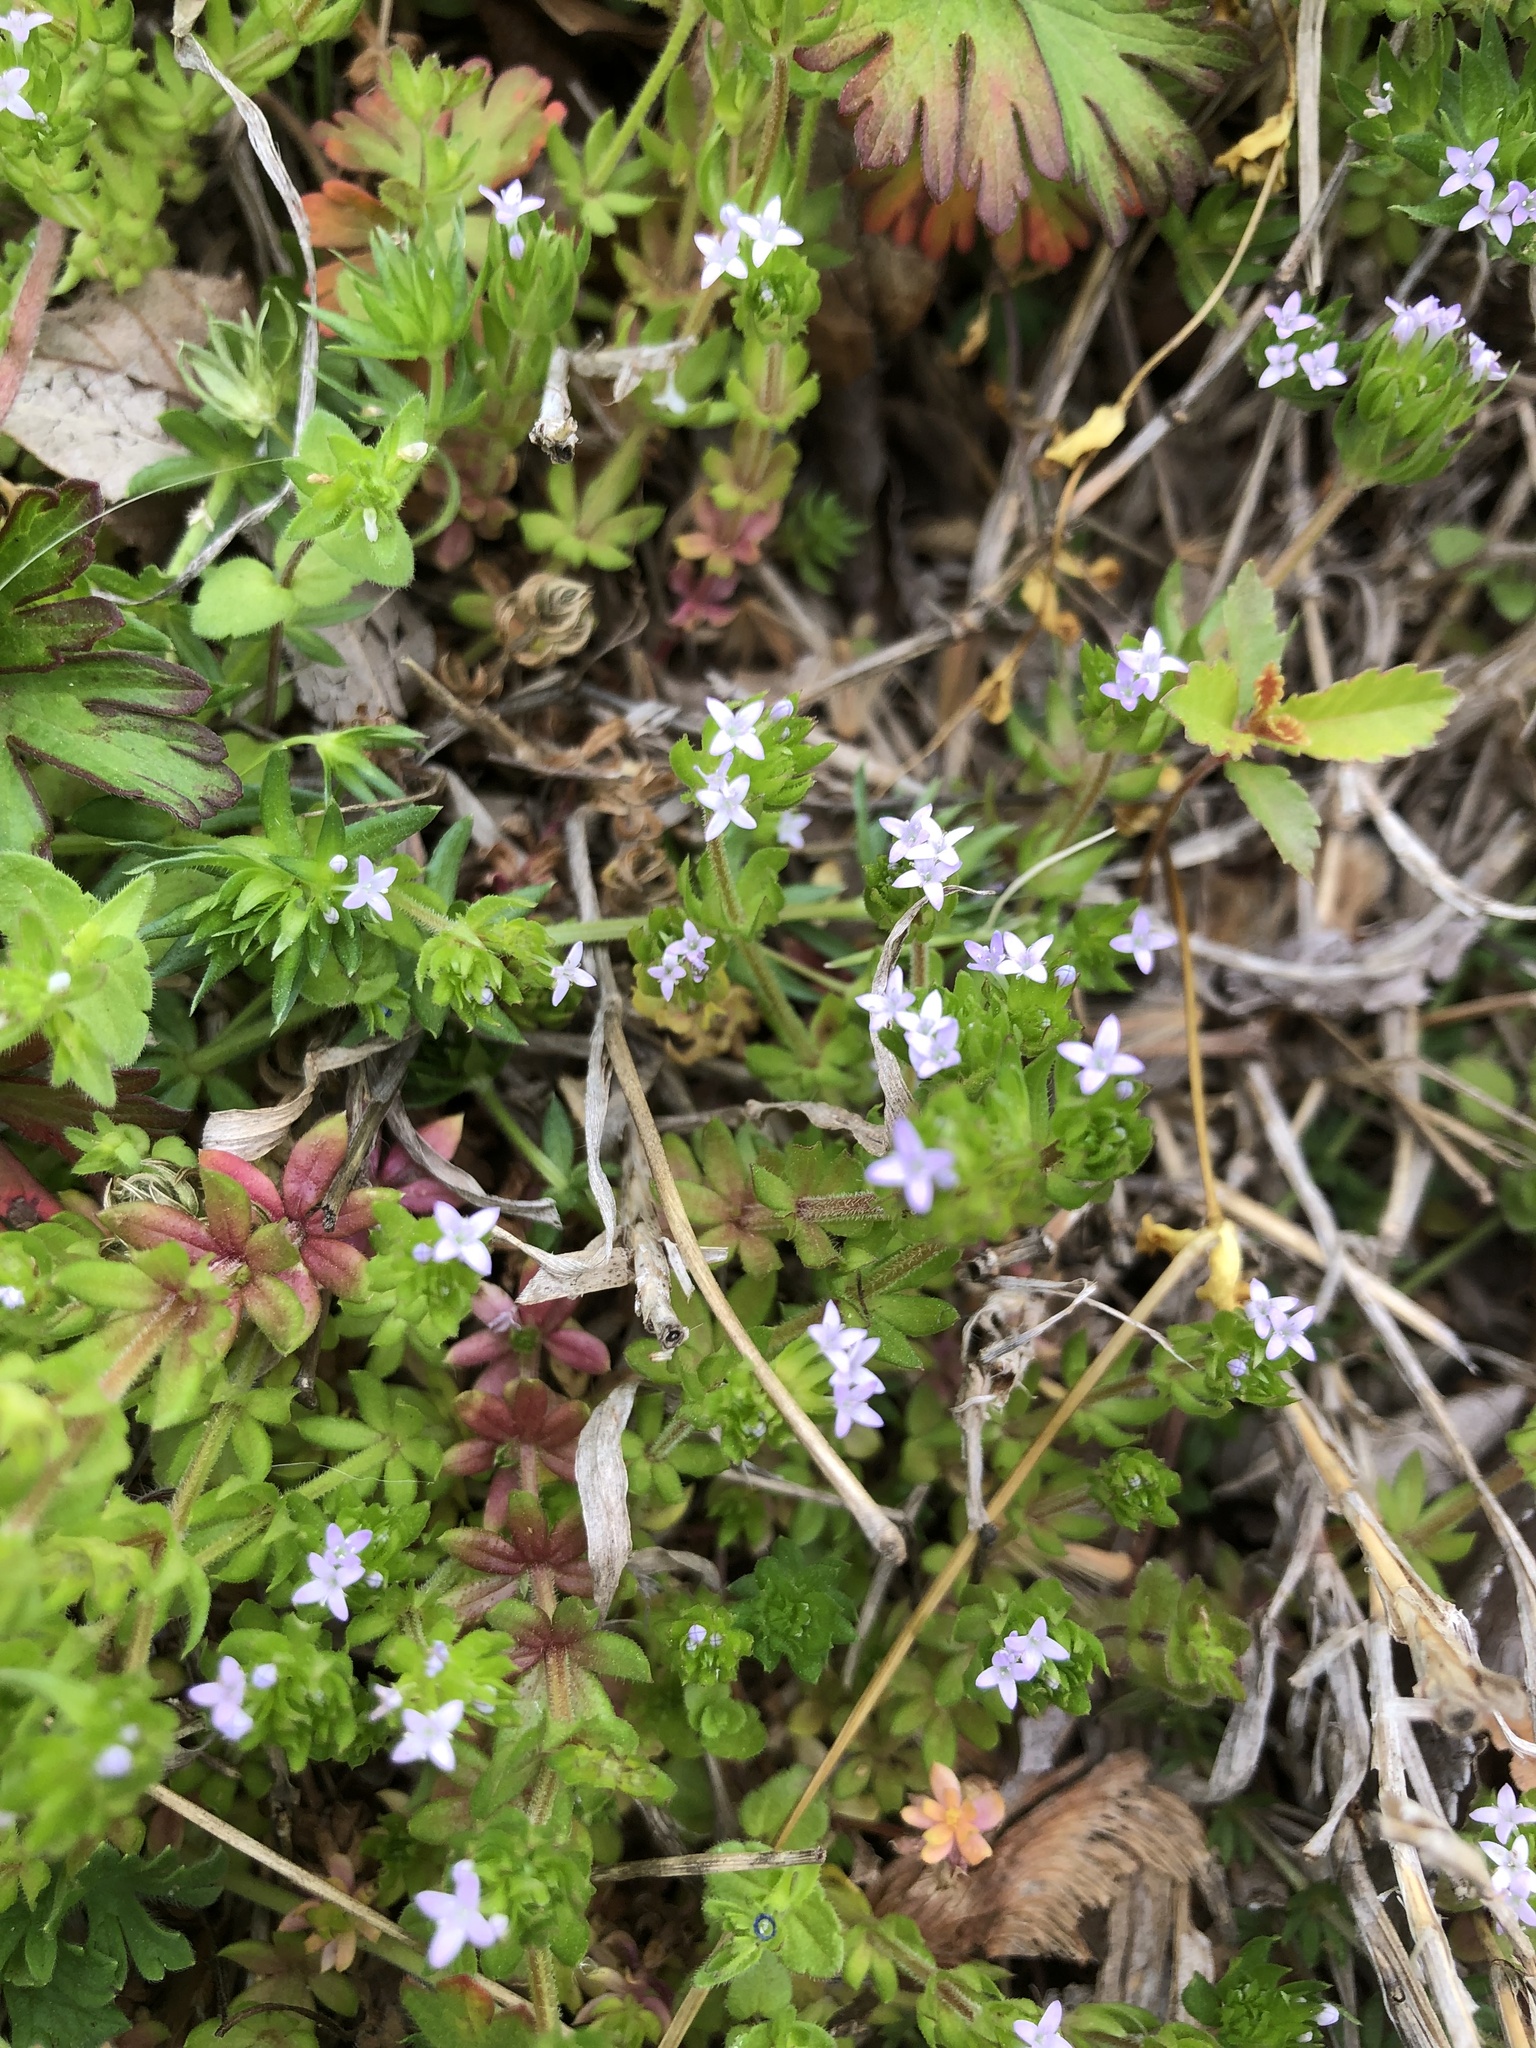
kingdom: Plantae
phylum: Tracheophyta
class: Magnoliopsida
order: Gentianales
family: Rubiaceae
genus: Sherardia
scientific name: Sherardia arvensis
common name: Field madder
